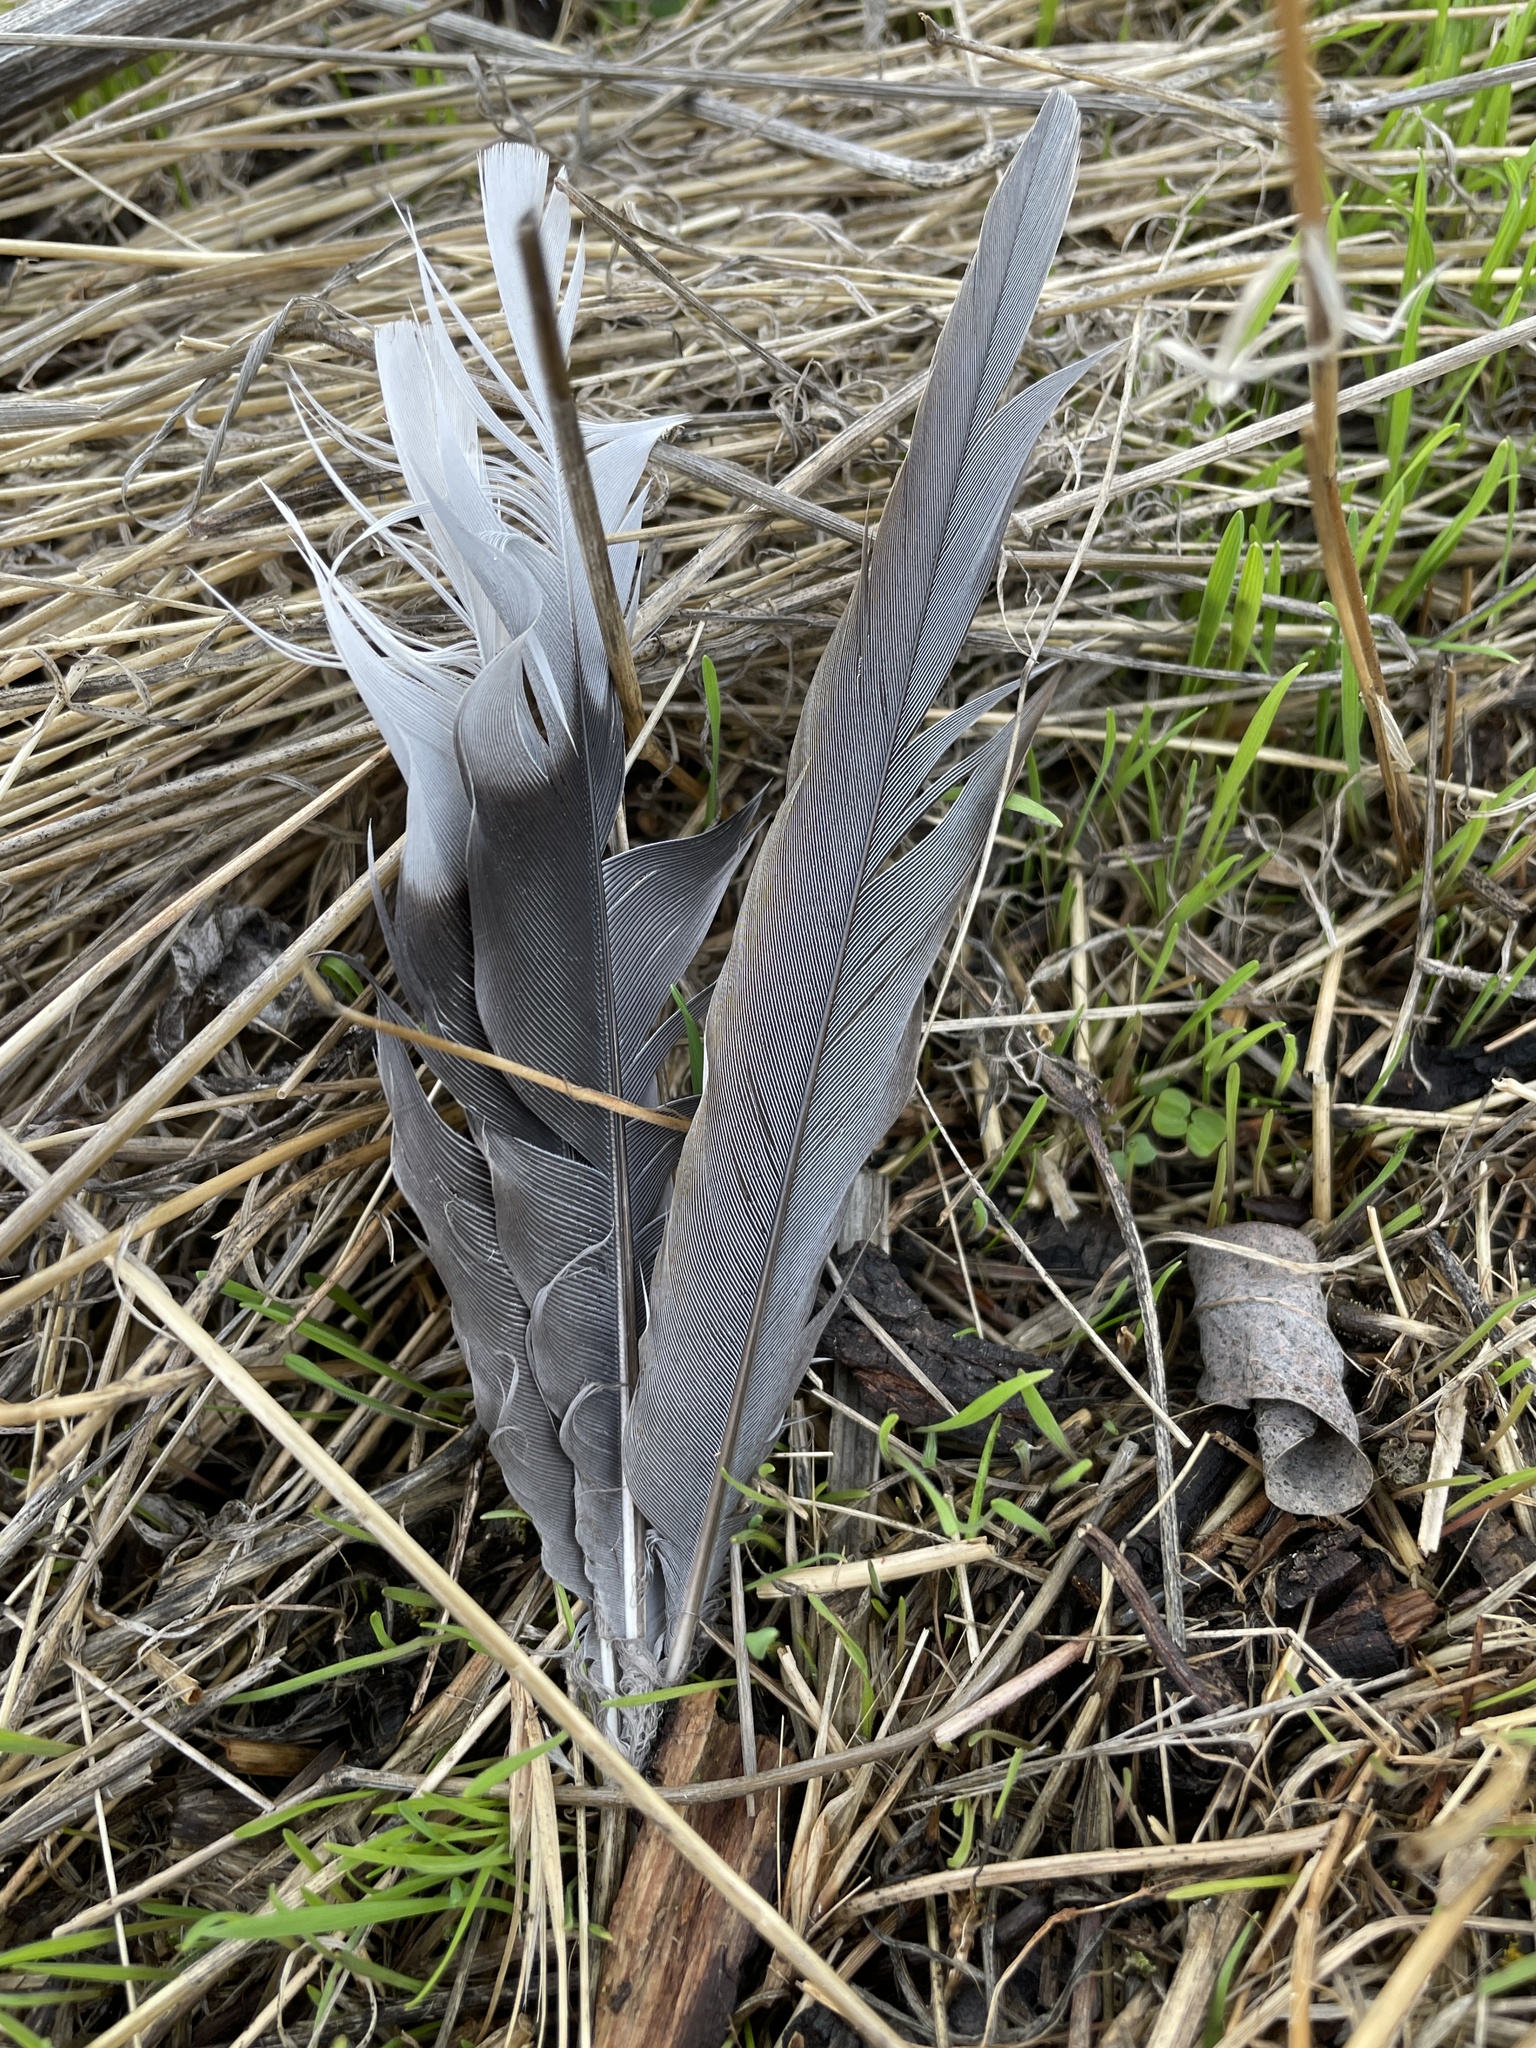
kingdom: Animalia
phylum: Chordata
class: Aves
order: Columbiformes
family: Columbidae
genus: Zenaida
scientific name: Zenaida macroura
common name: Mourning dove
